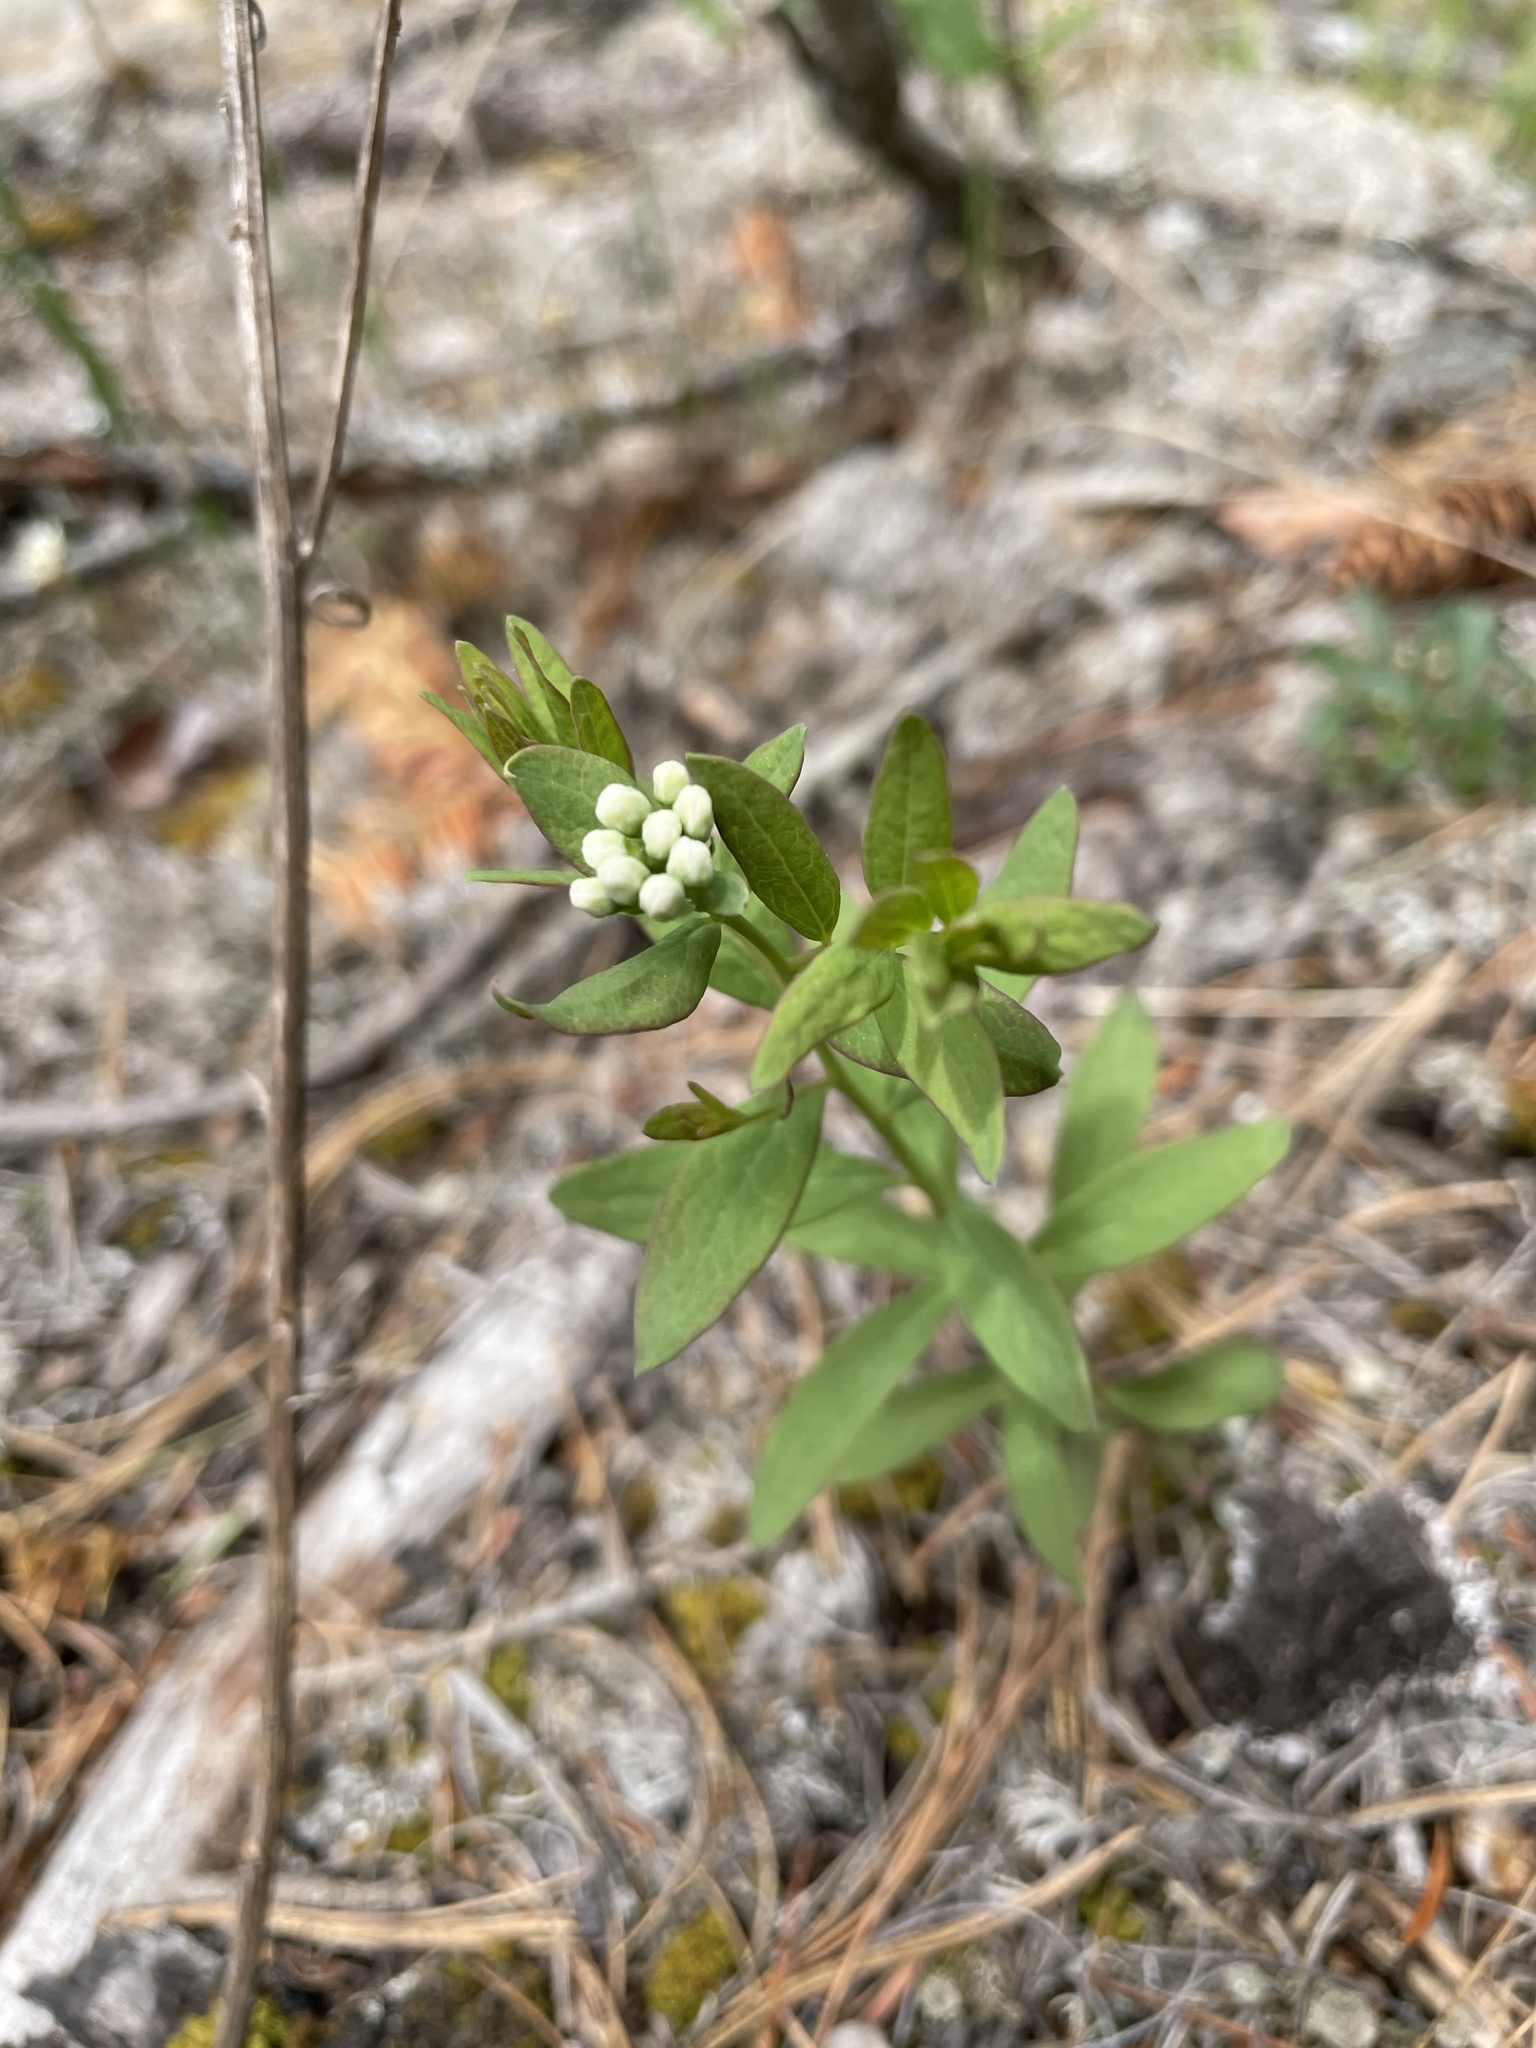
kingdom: Plantae
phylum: Tracheophyta
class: Magnoliopsida
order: Santalales
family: Comandraceae
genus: Comandra
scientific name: Comandra umbellata
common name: Bastard toadflax
